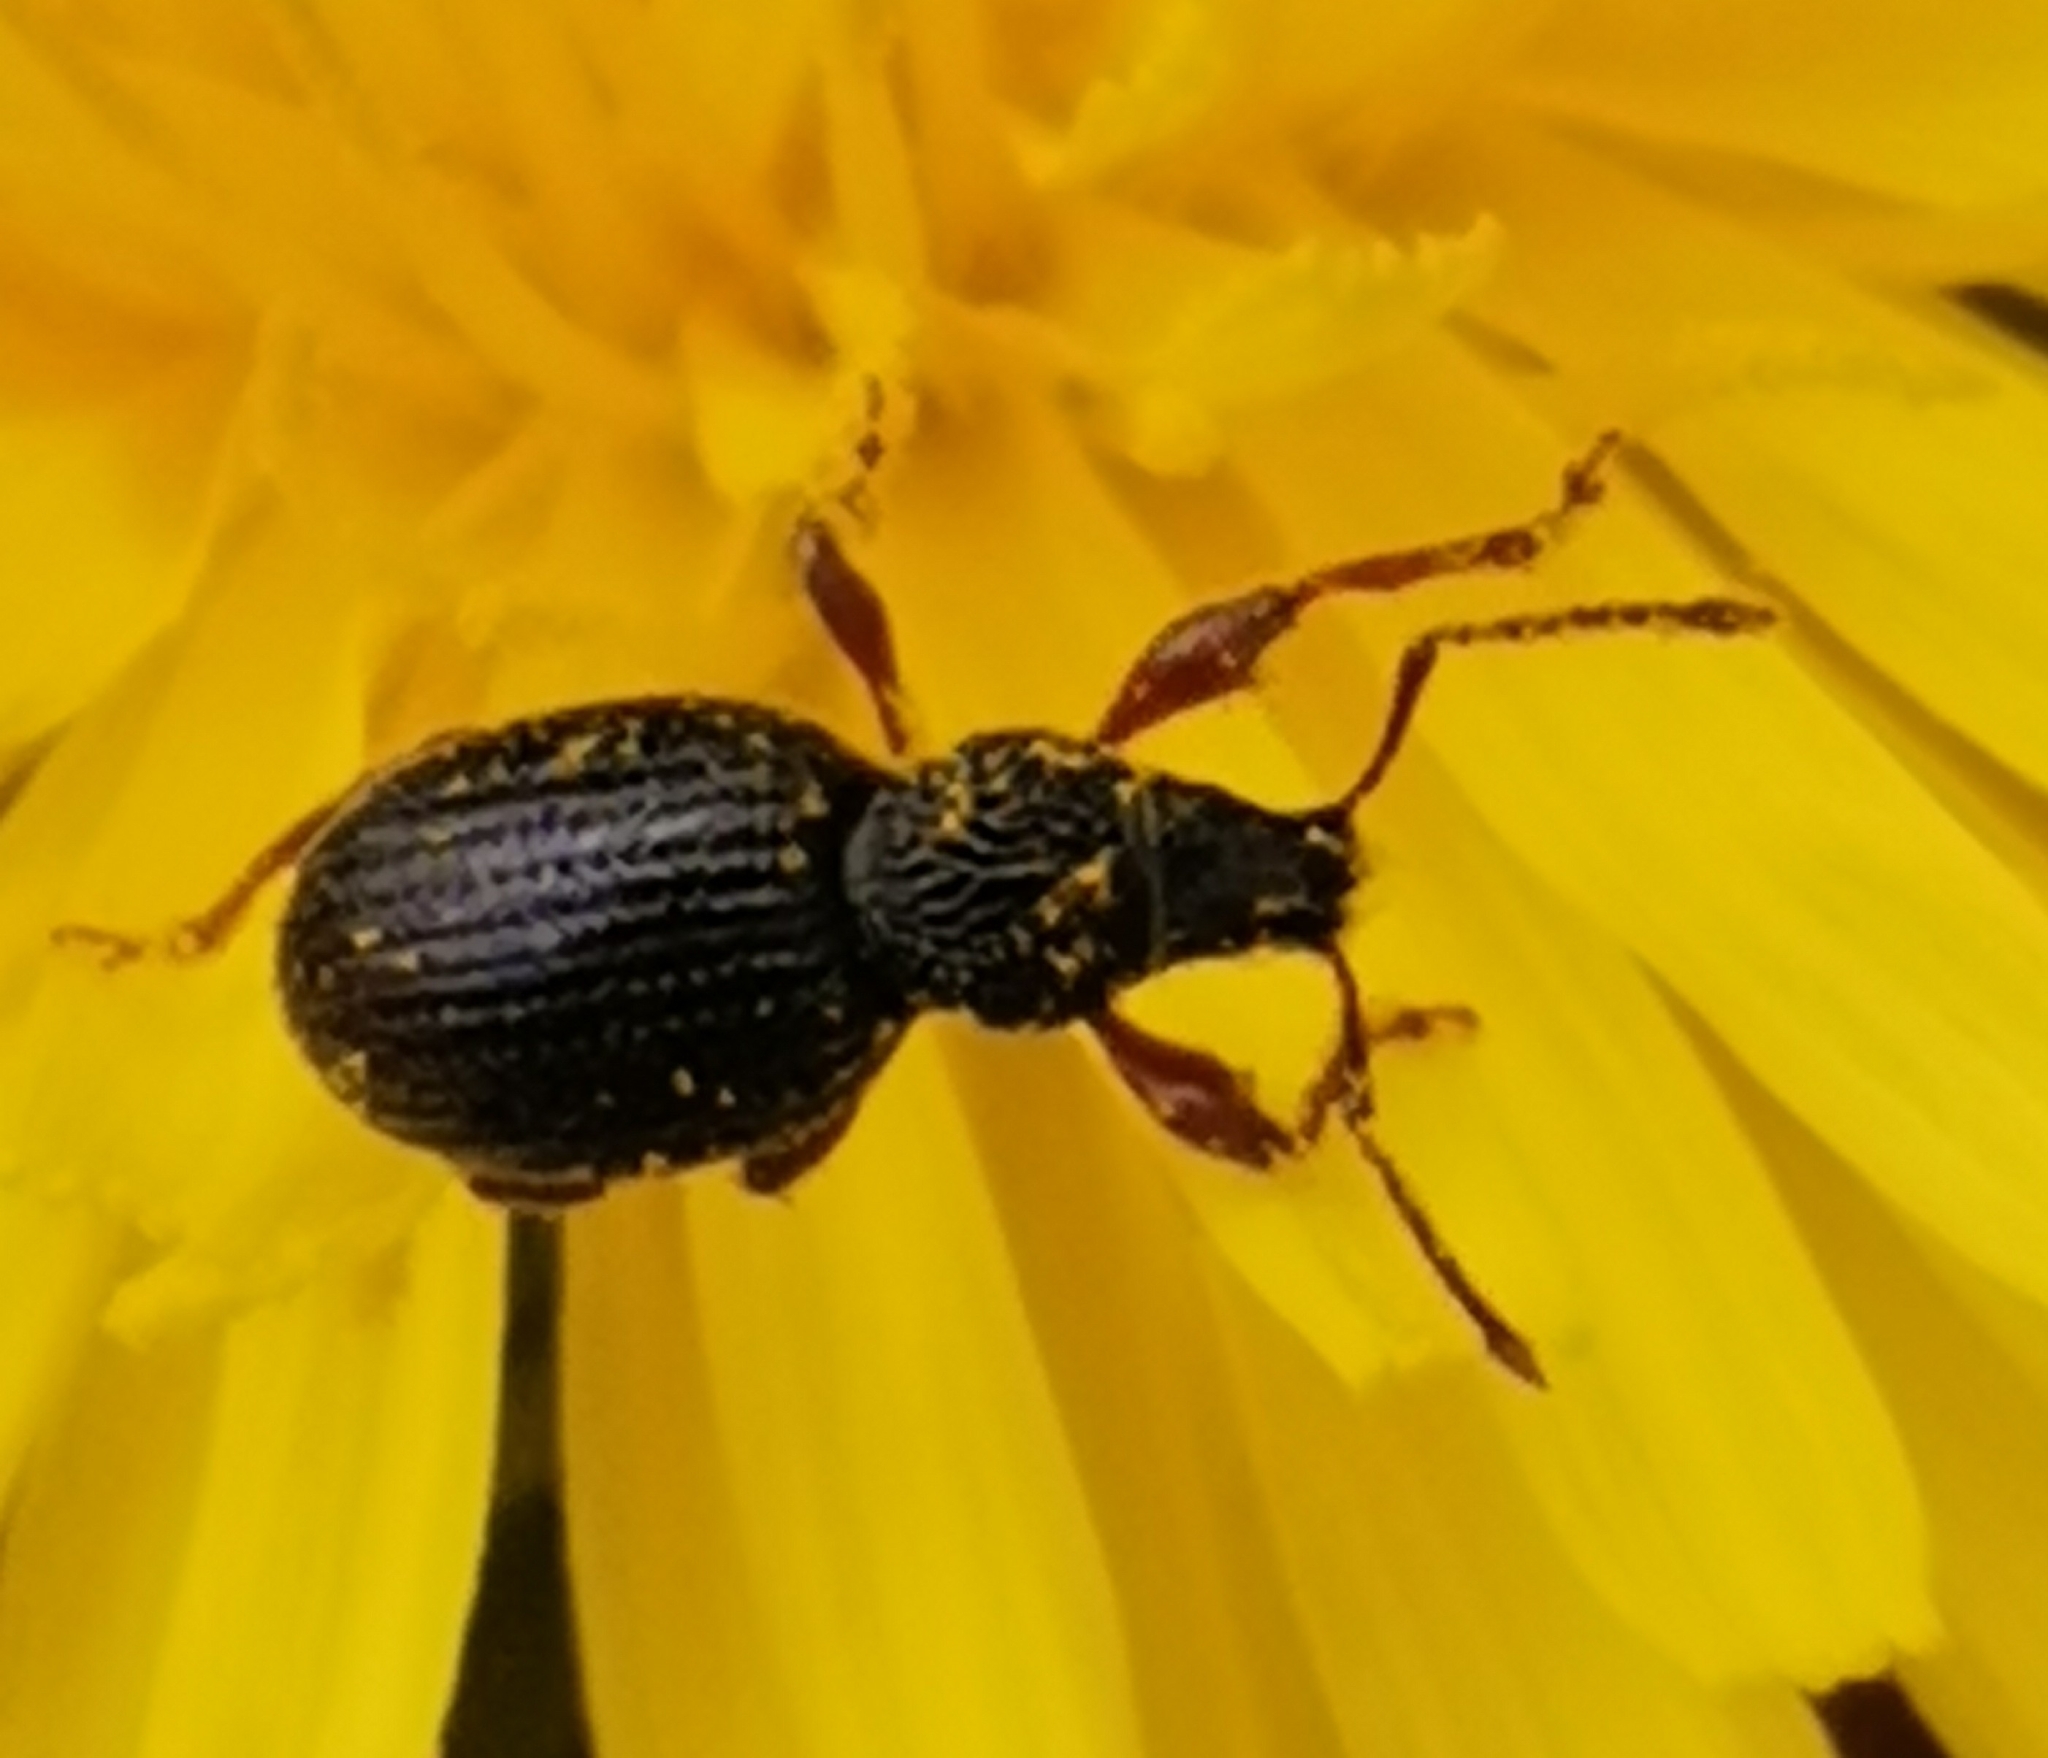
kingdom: Animalia
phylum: Arthropoda
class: Insecta
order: Coleoptera
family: Curculionidae
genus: Otiorhynchus
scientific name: Otiorhynchus ovatus
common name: Strawberry root weevil
